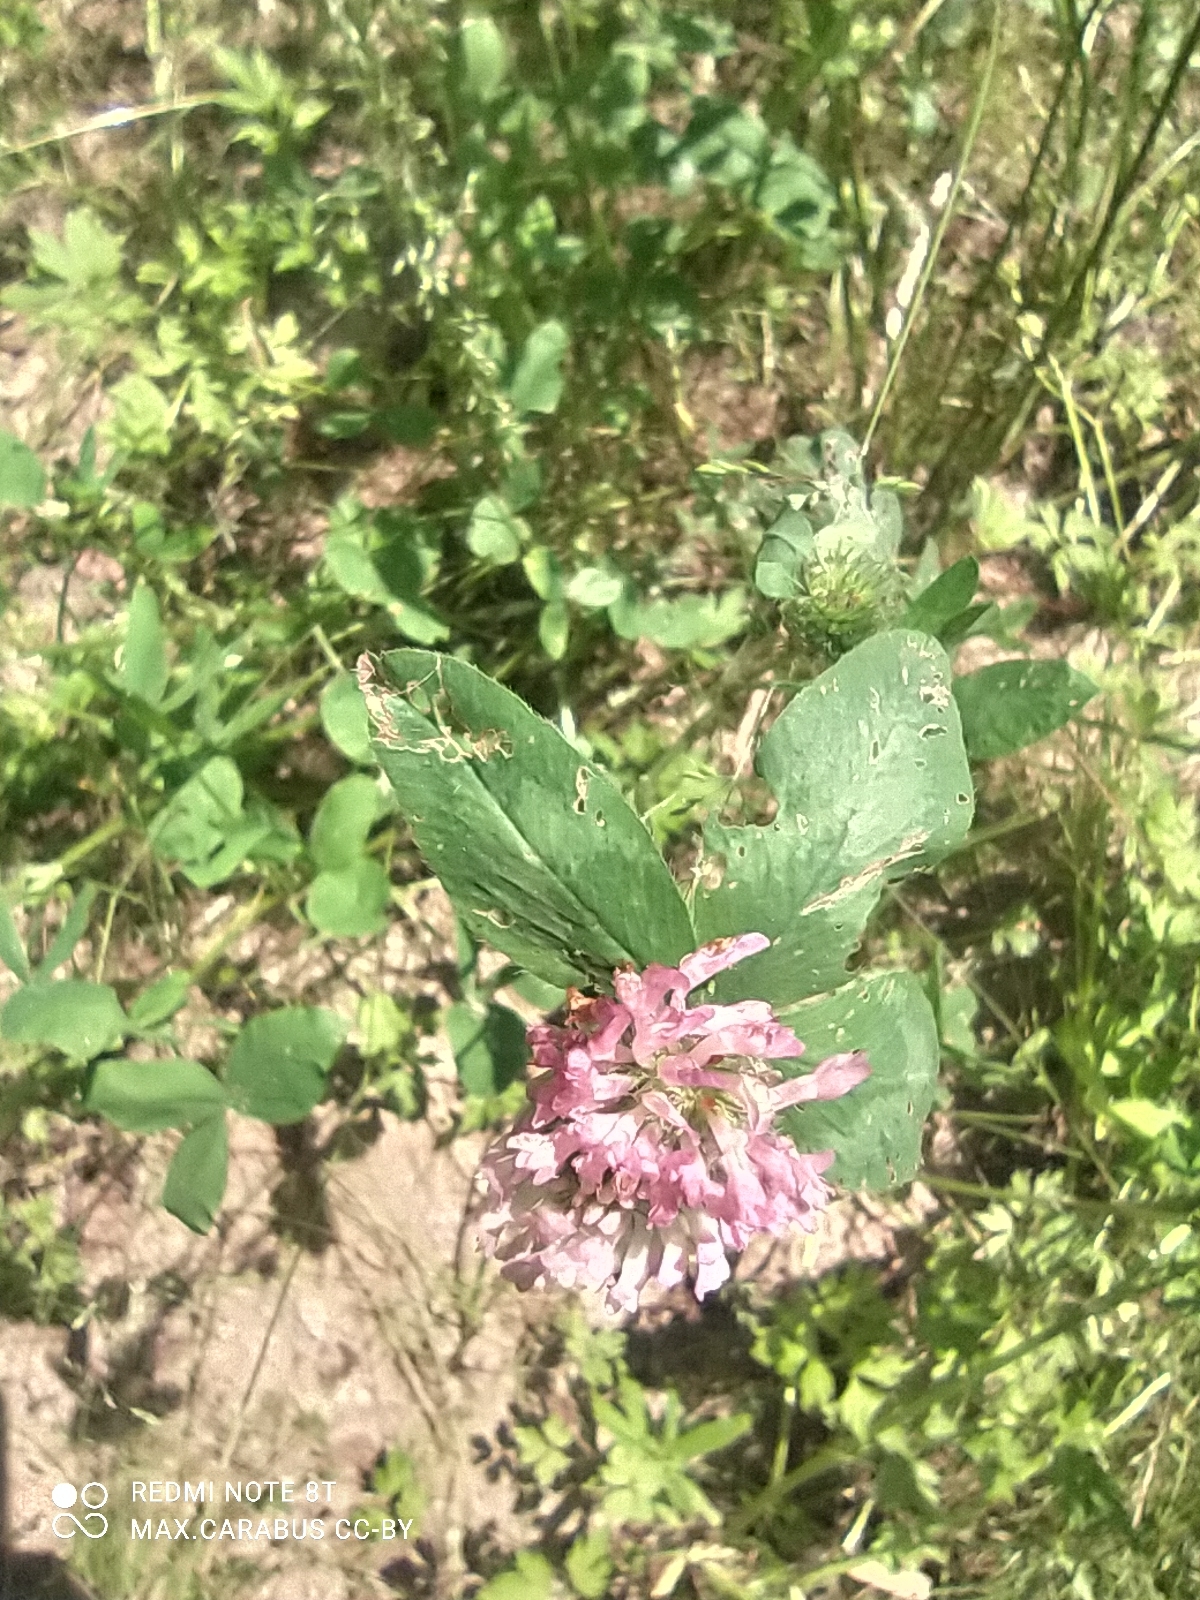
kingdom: Plantae
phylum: Tracheophyta
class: Magnoliopsida
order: Fabales
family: Fabaceae
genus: Trifolium
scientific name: Trifolium pratense
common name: Red clover
